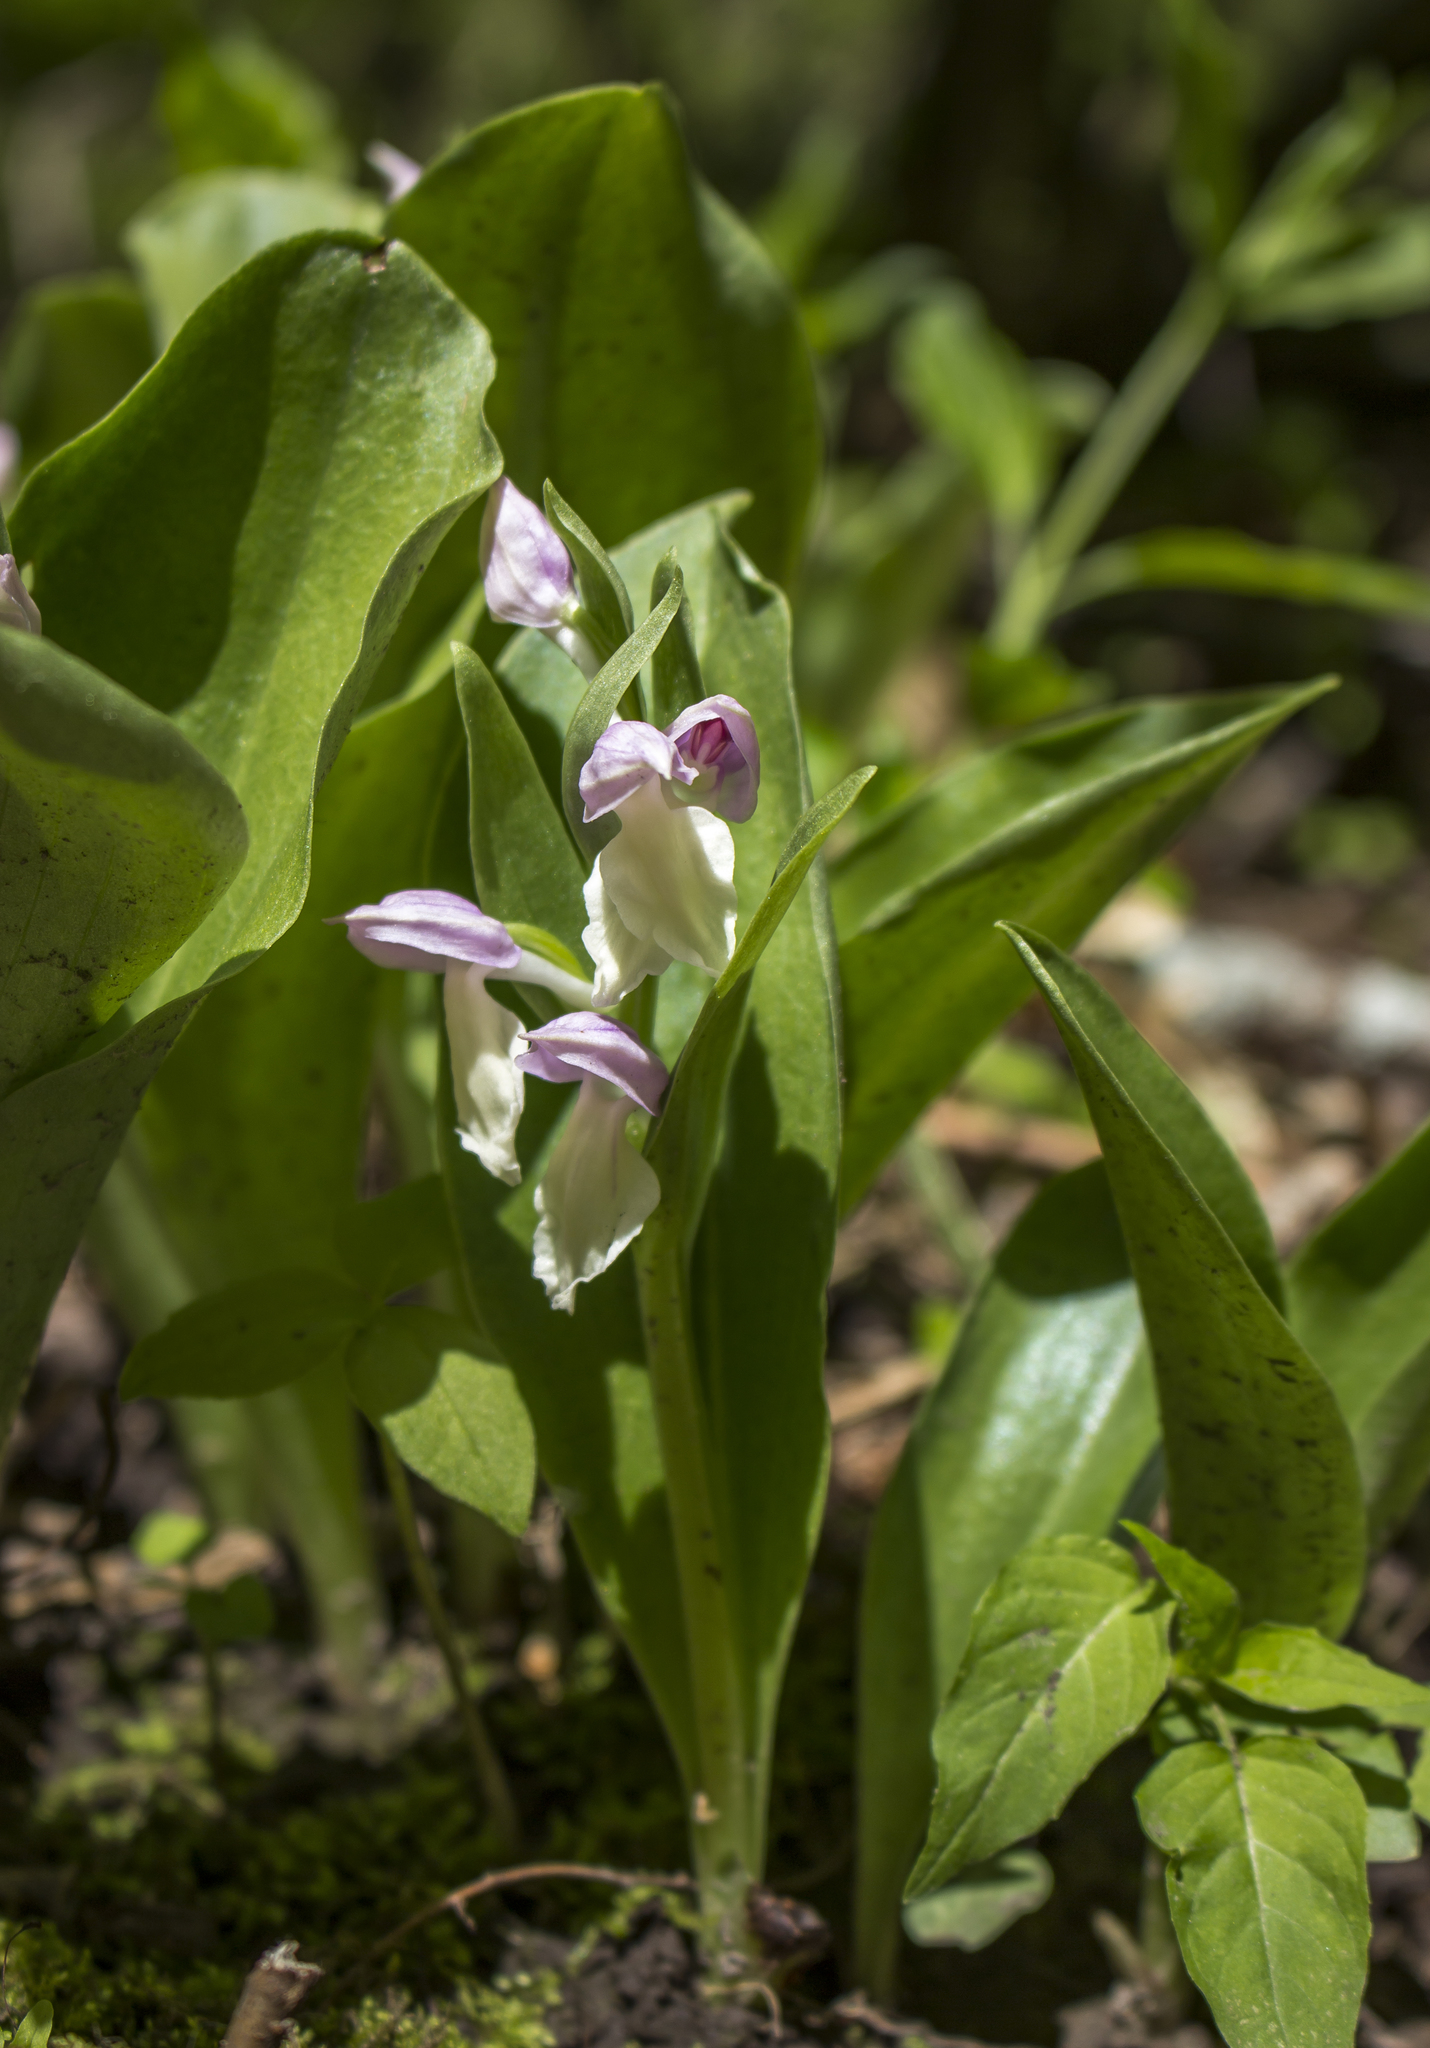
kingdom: Plantae
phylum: Tracheophyta
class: Liliopsida
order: Asparagales
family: Orchidaceae
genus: Galearis
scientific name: Galearis spectabilis
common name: Purple-hooded orchis
